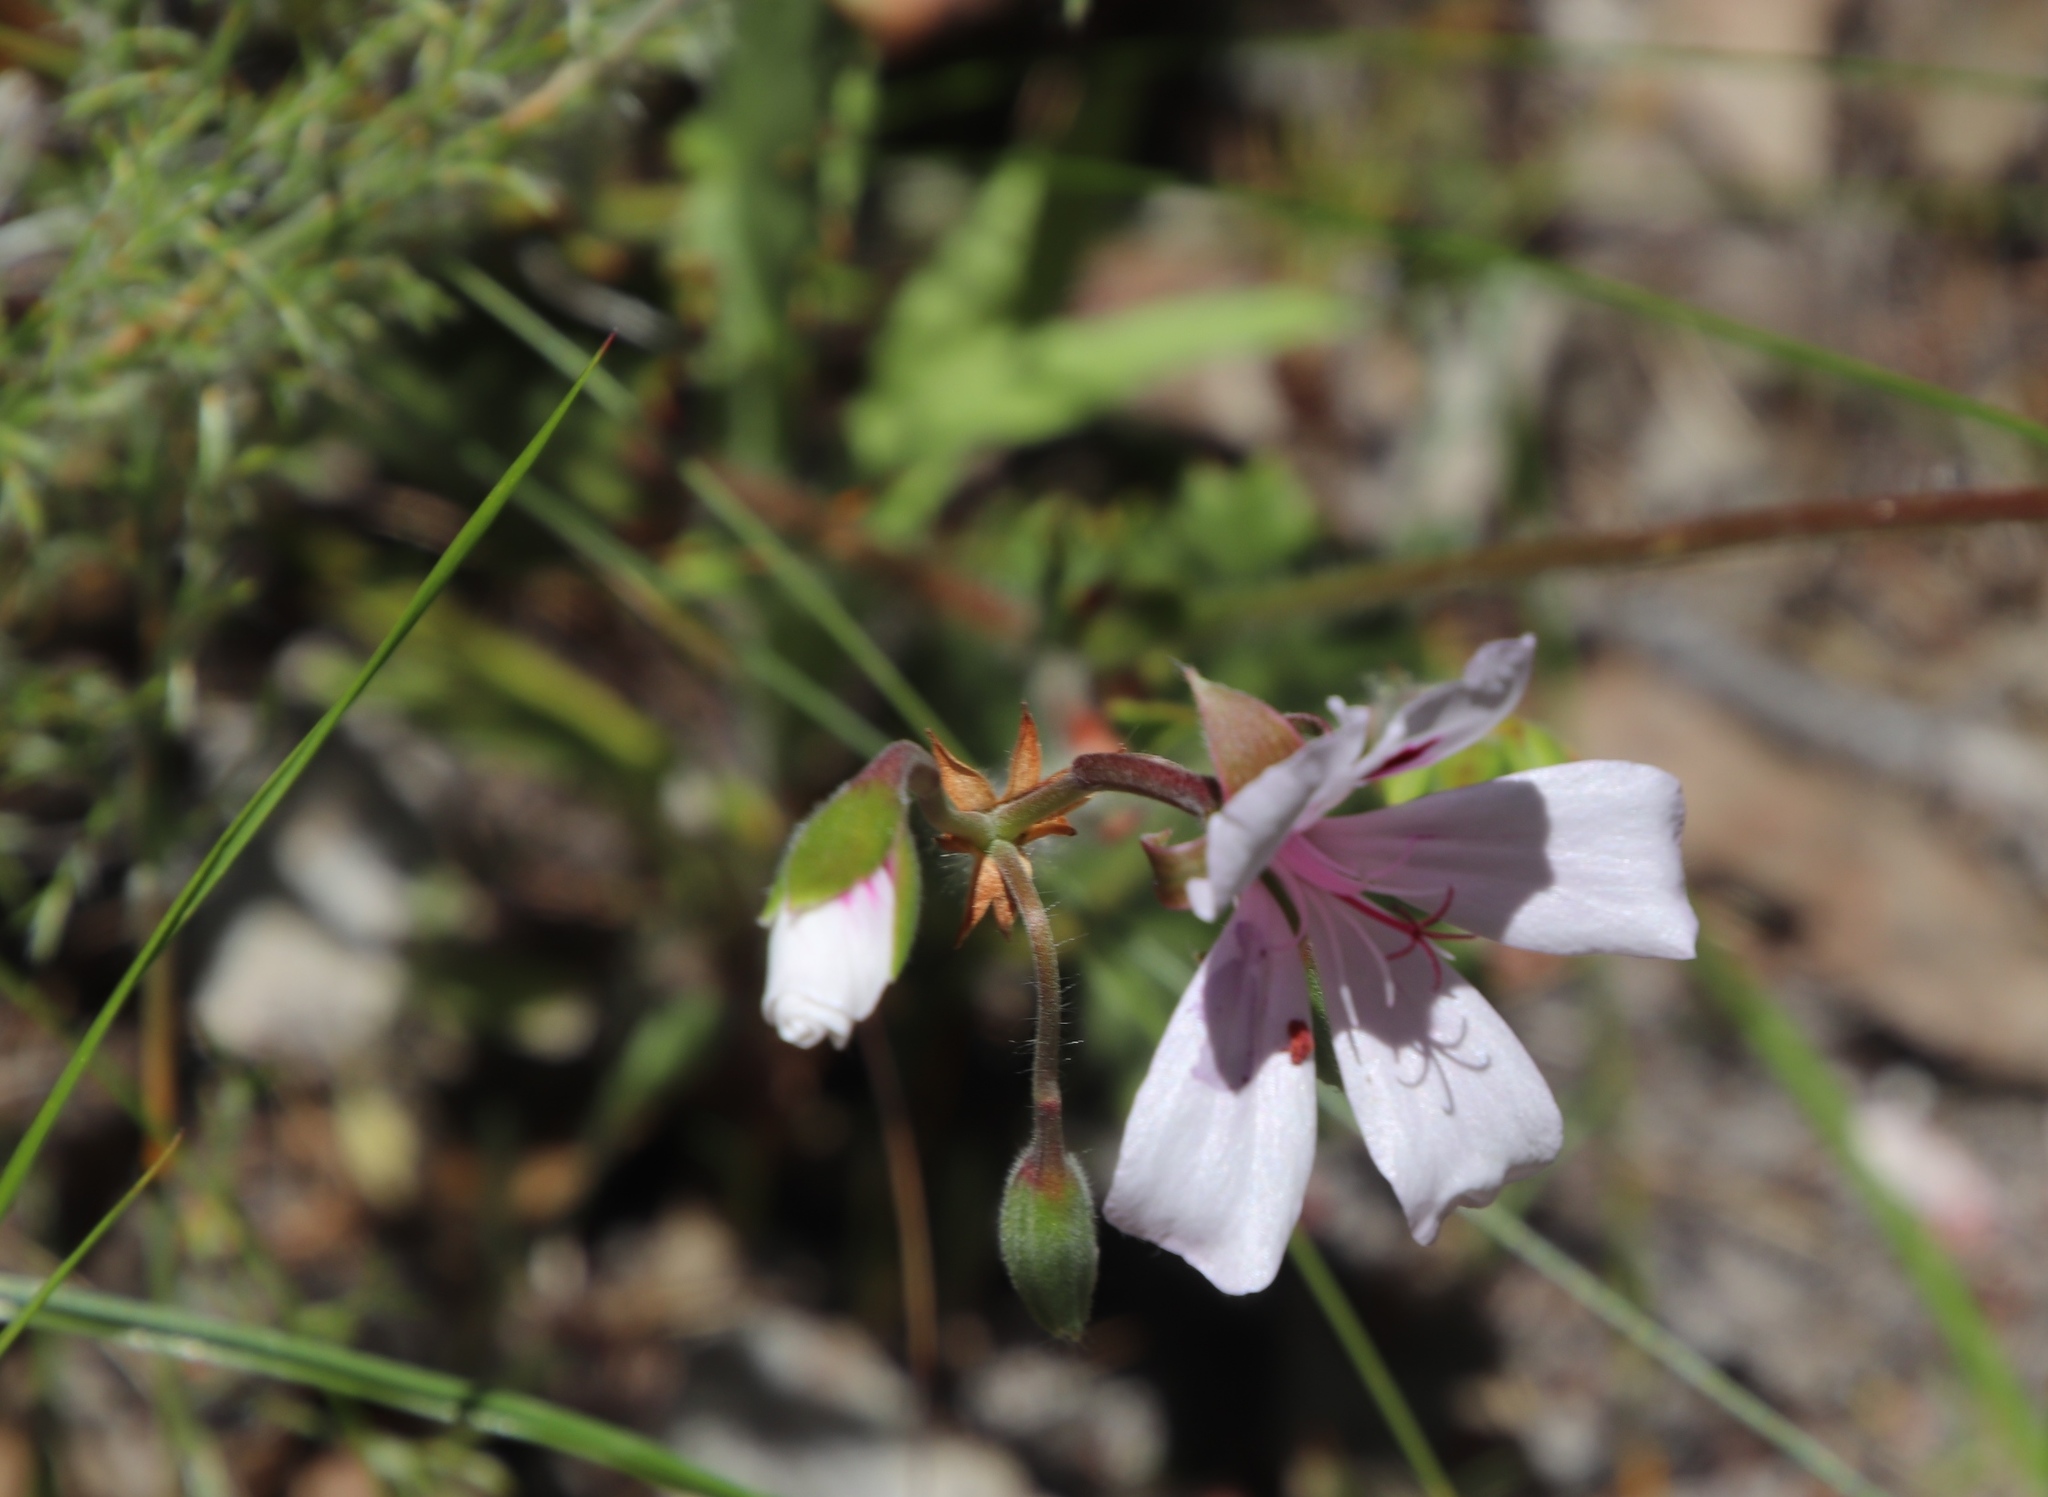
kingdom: Plantae
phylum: Tracheophyta
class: Magnoliopsida
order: Geraniales
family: Geraniaceae
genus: Pelargonium
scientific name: Pelargonium elegans
